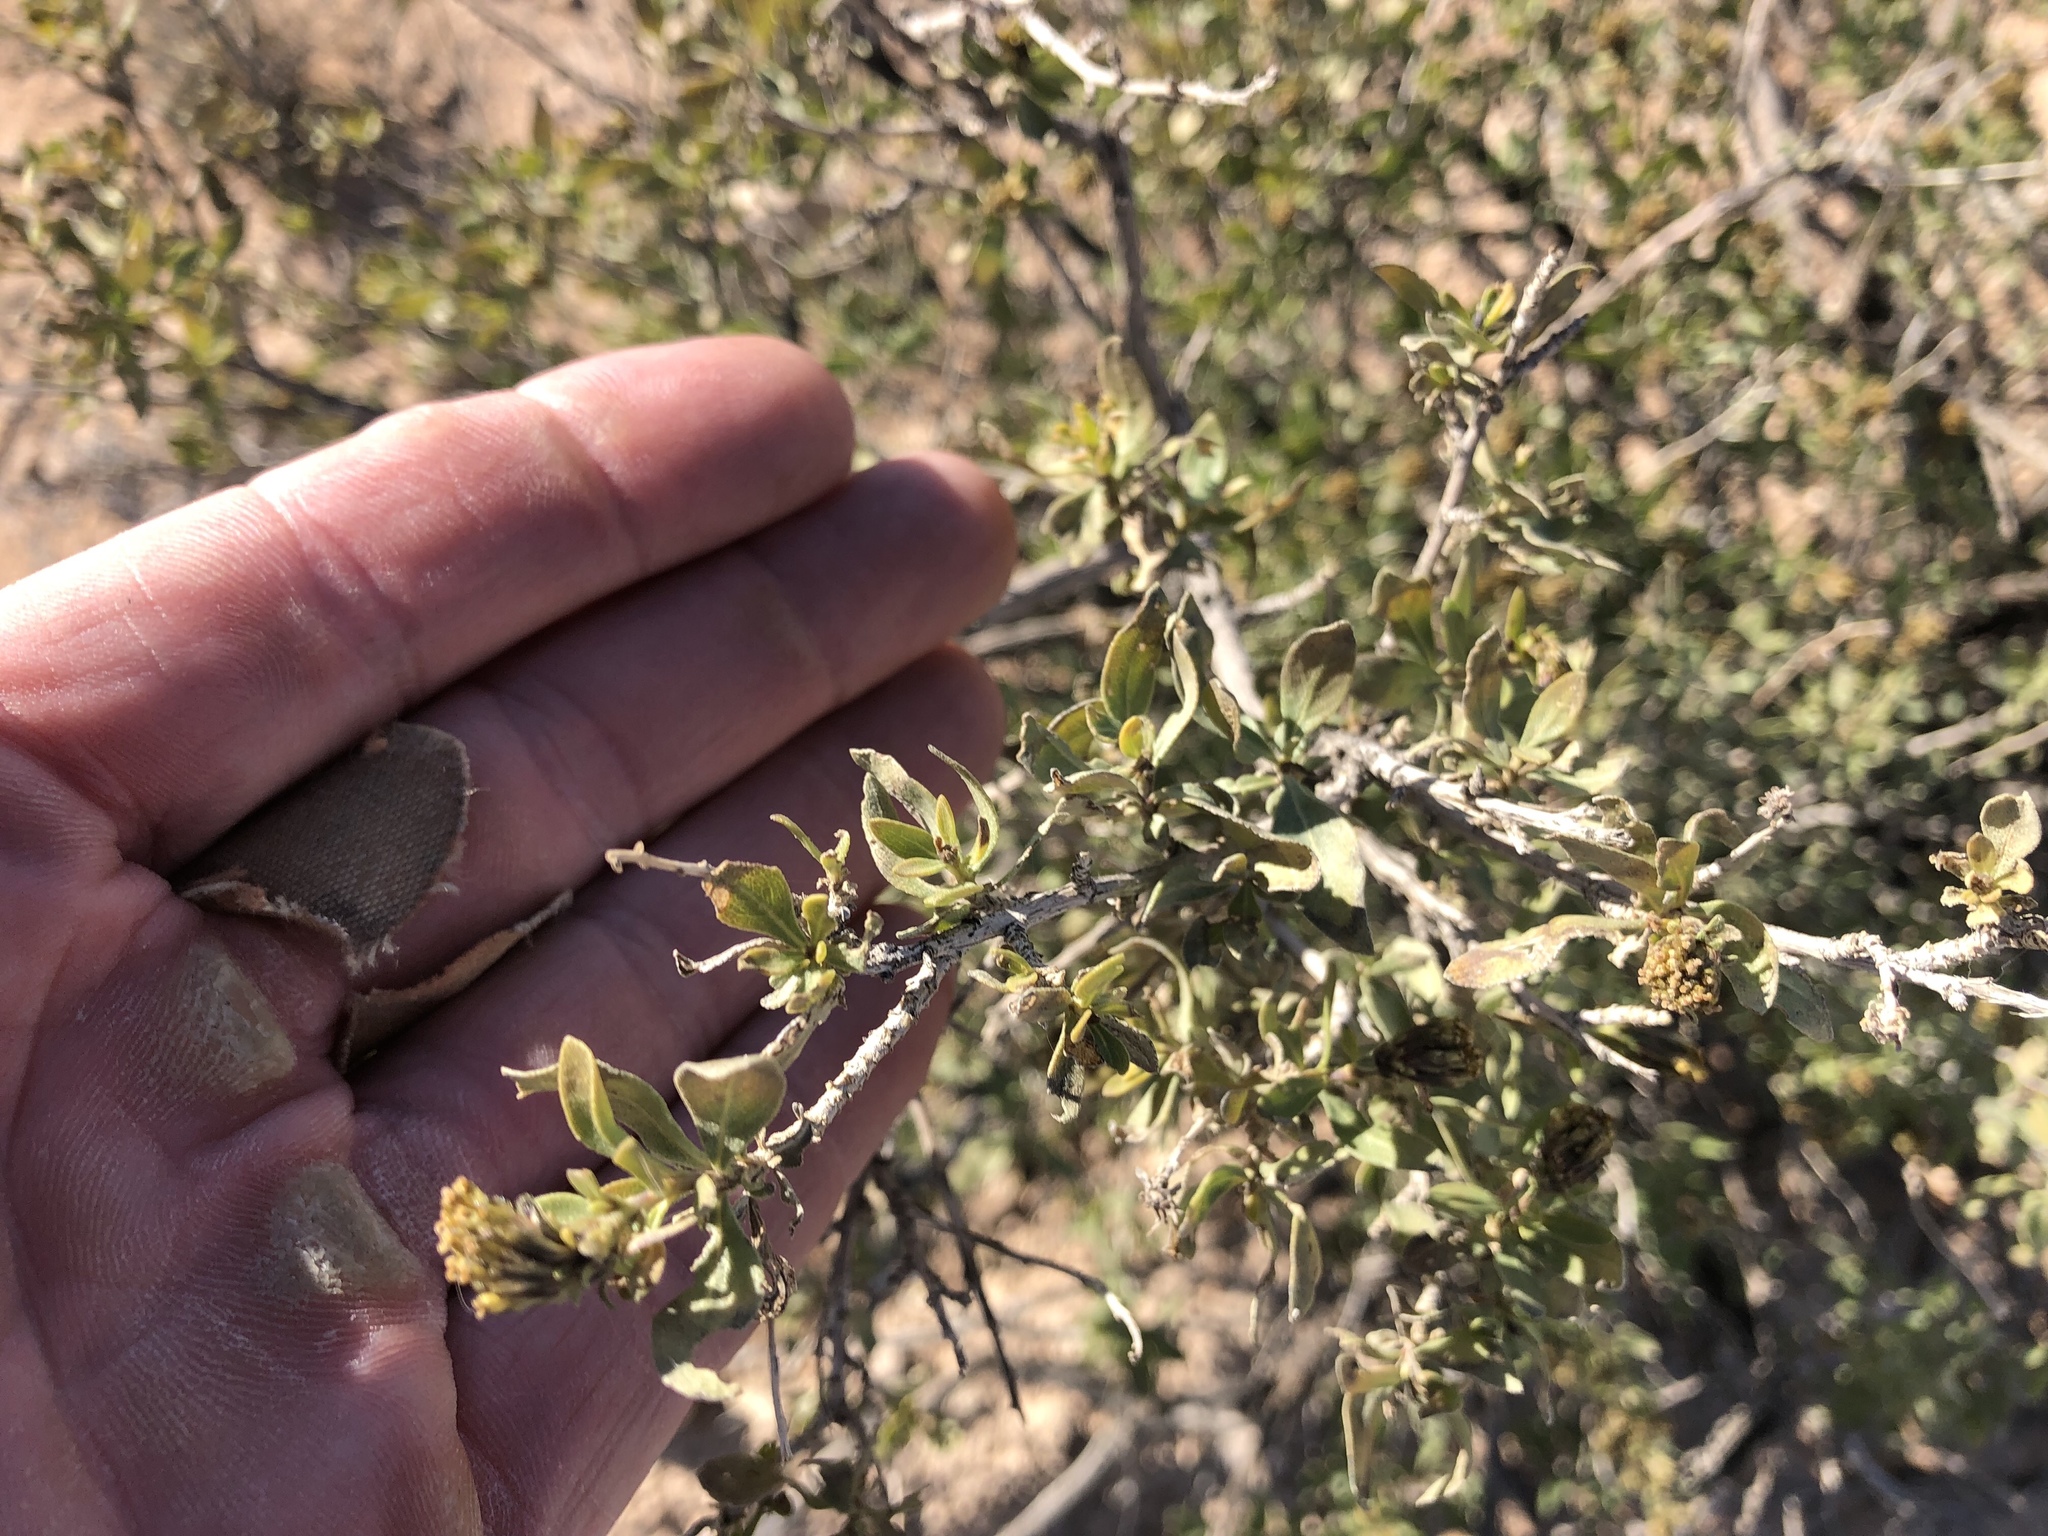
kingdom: Plantae
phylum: Tracheophyta
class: Magnoliopsida
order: Asterales
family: Asteraceae
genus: Flourensia
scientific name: Flourensia cernua
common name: Varnishbush
